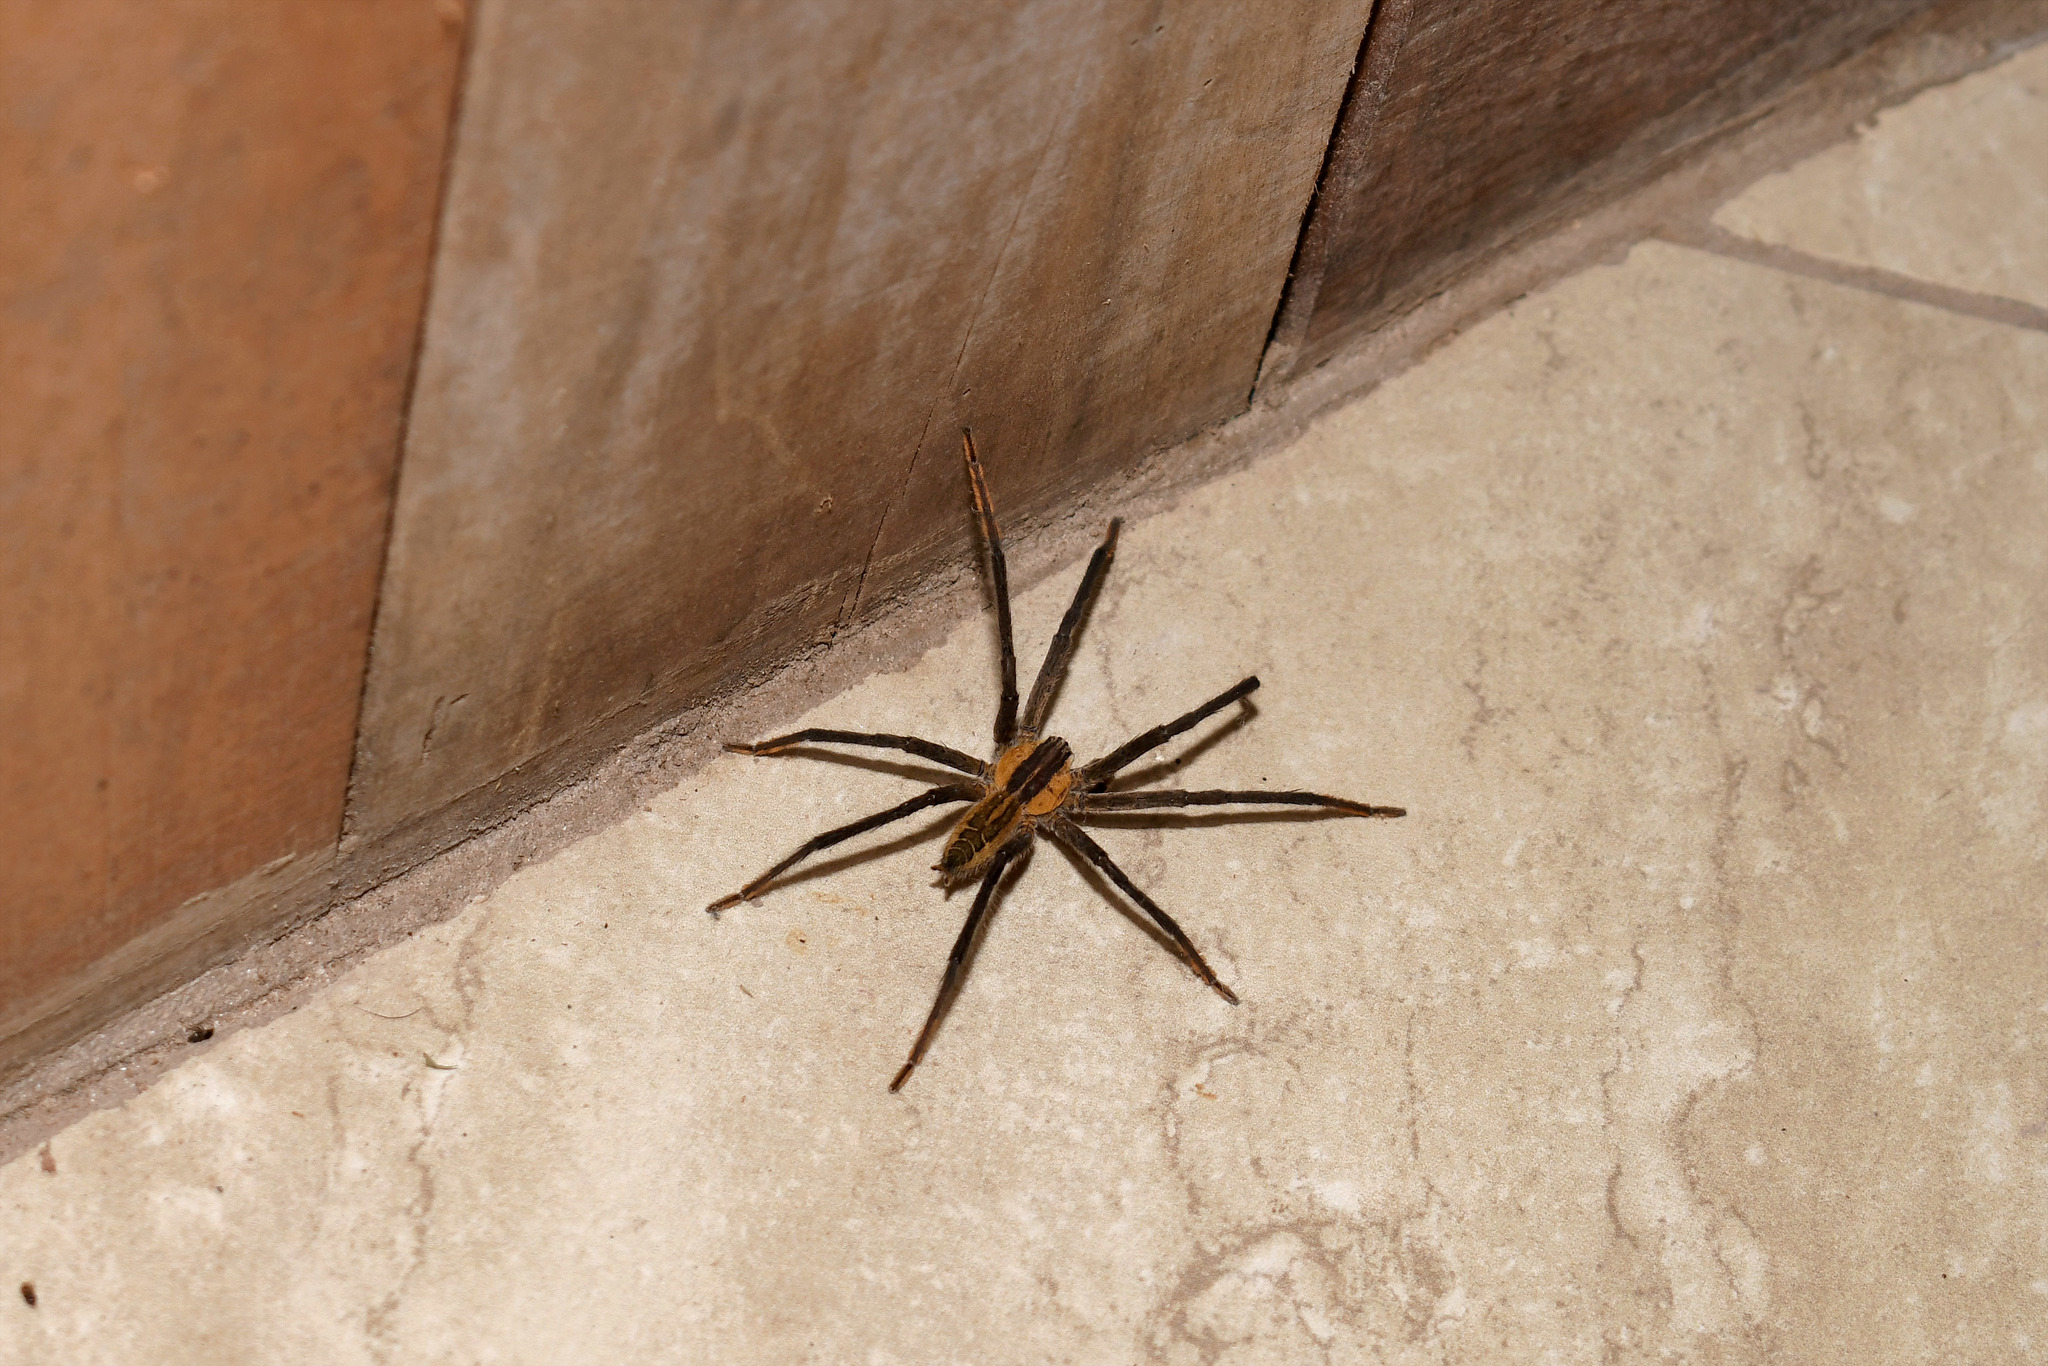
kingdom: Animalia
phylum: Arthropoda
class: Arachnida
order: Araneae
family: Trechaleidae
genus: Cupiennius
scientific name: Cupiennius getazi
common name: Wandering spiders
